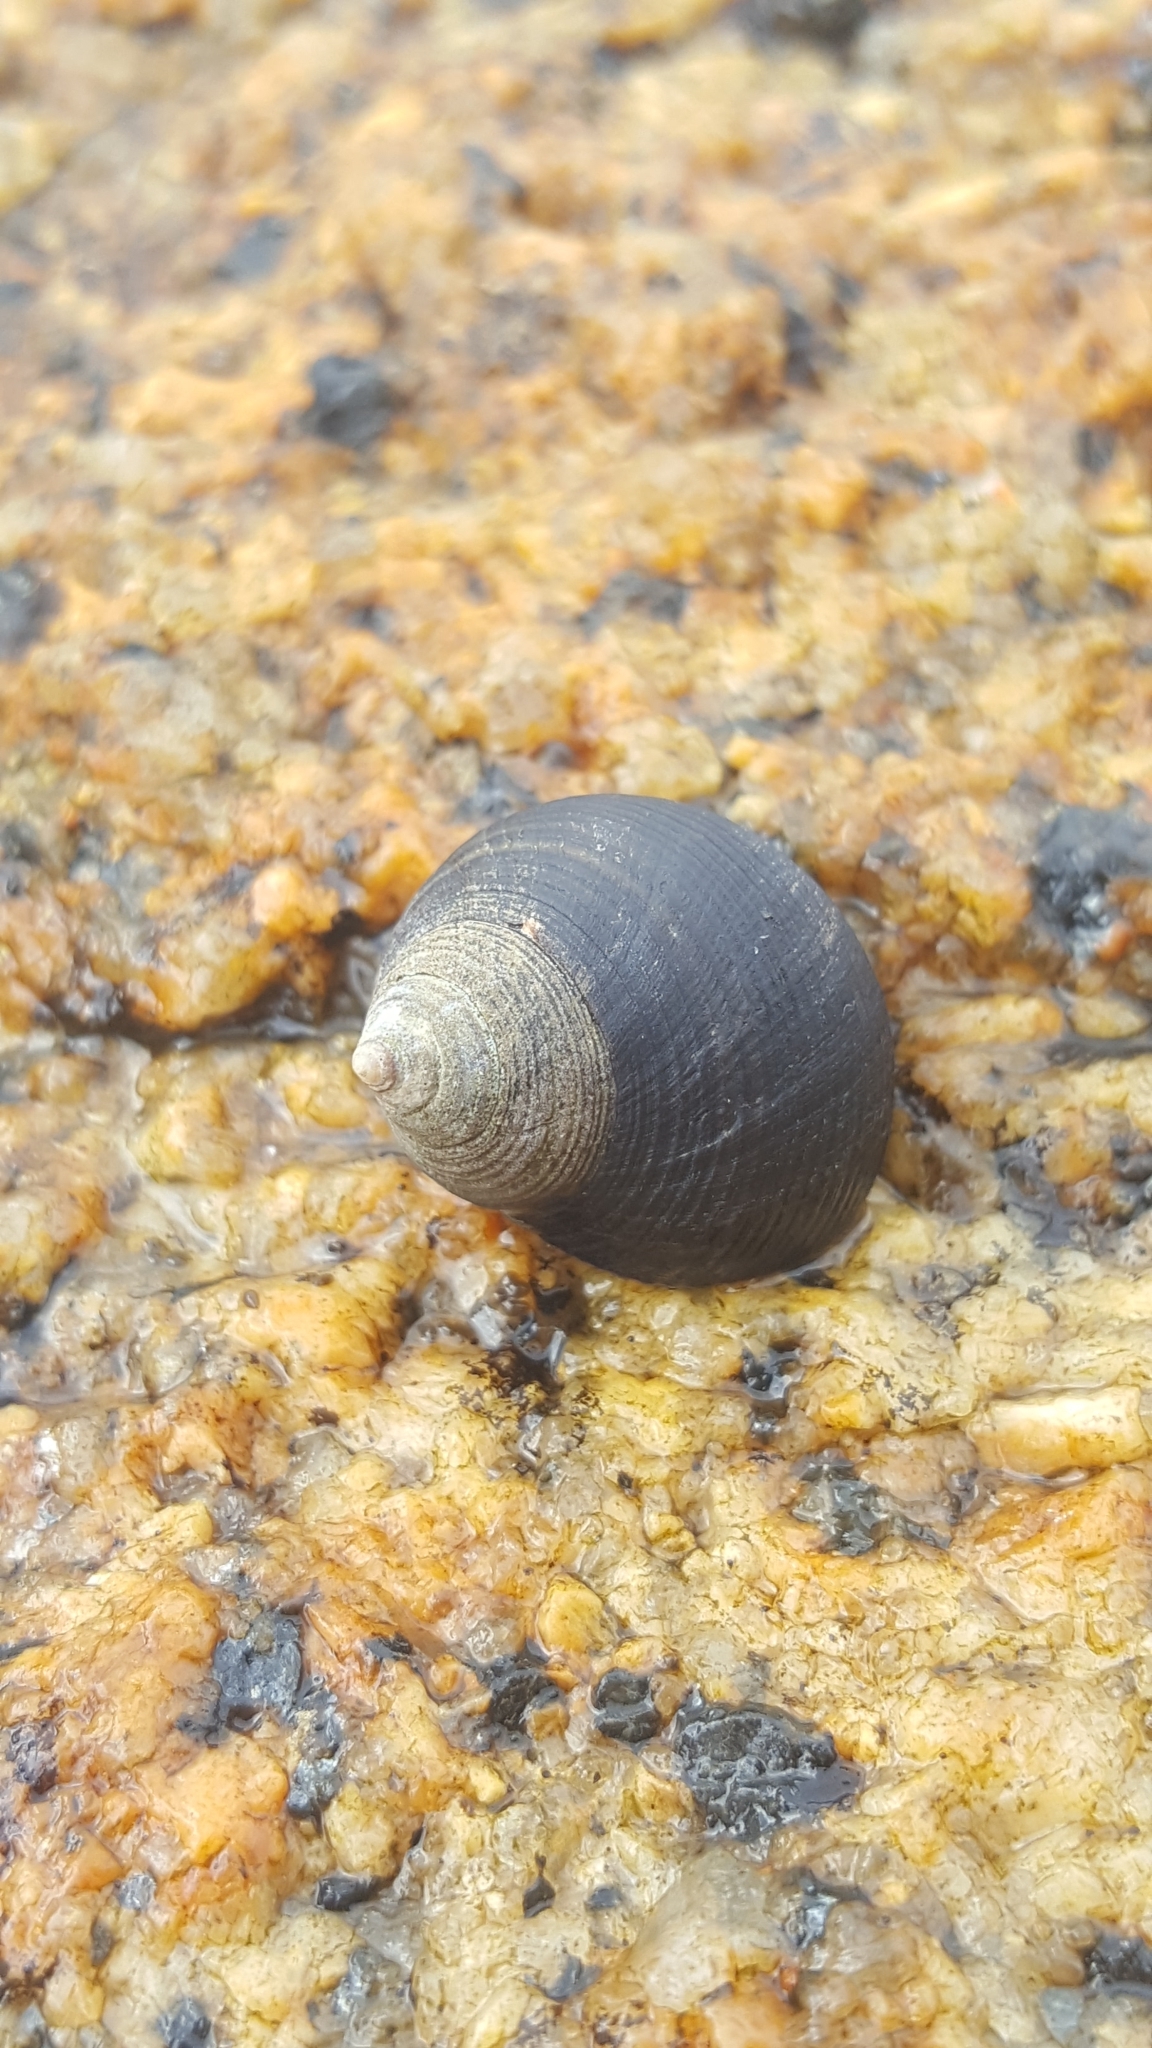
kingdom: Animalia
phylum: Mollusca
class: Gastropoda
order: Littorinimorpha
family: Littorinidae
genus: Littorina
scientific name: Littorina littorea
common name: Common periwinkle
